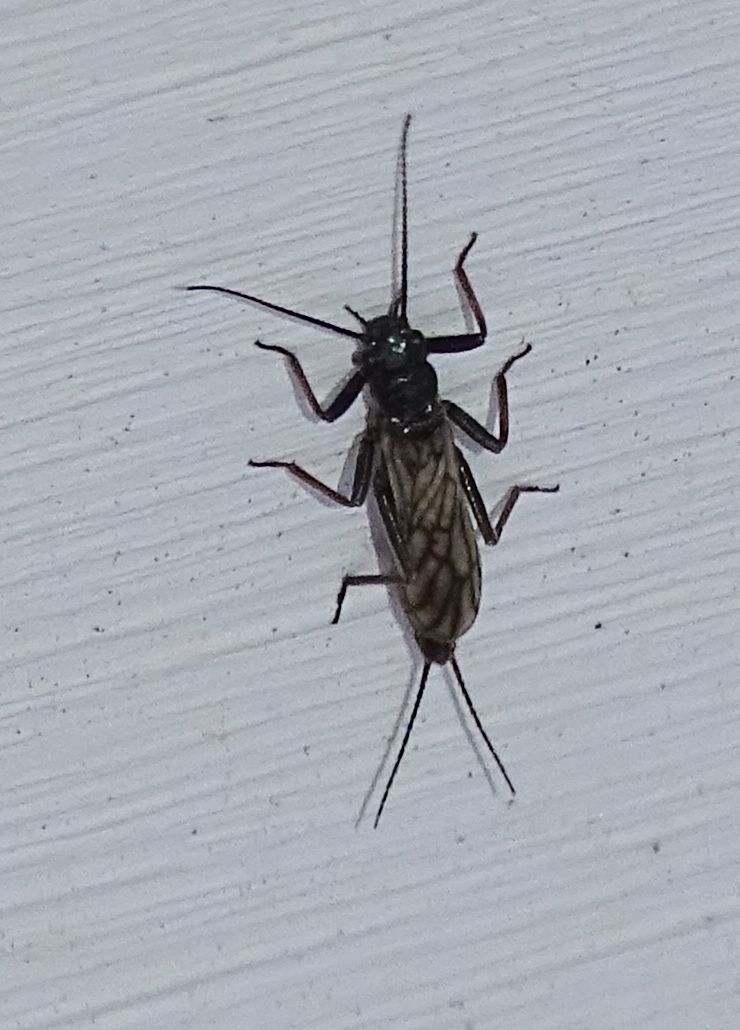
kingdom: Animalia
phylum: Arthropoda
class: Insecta
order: Plecoptera
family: Capniidae
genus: Allocapnia
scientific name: Allocapnia
